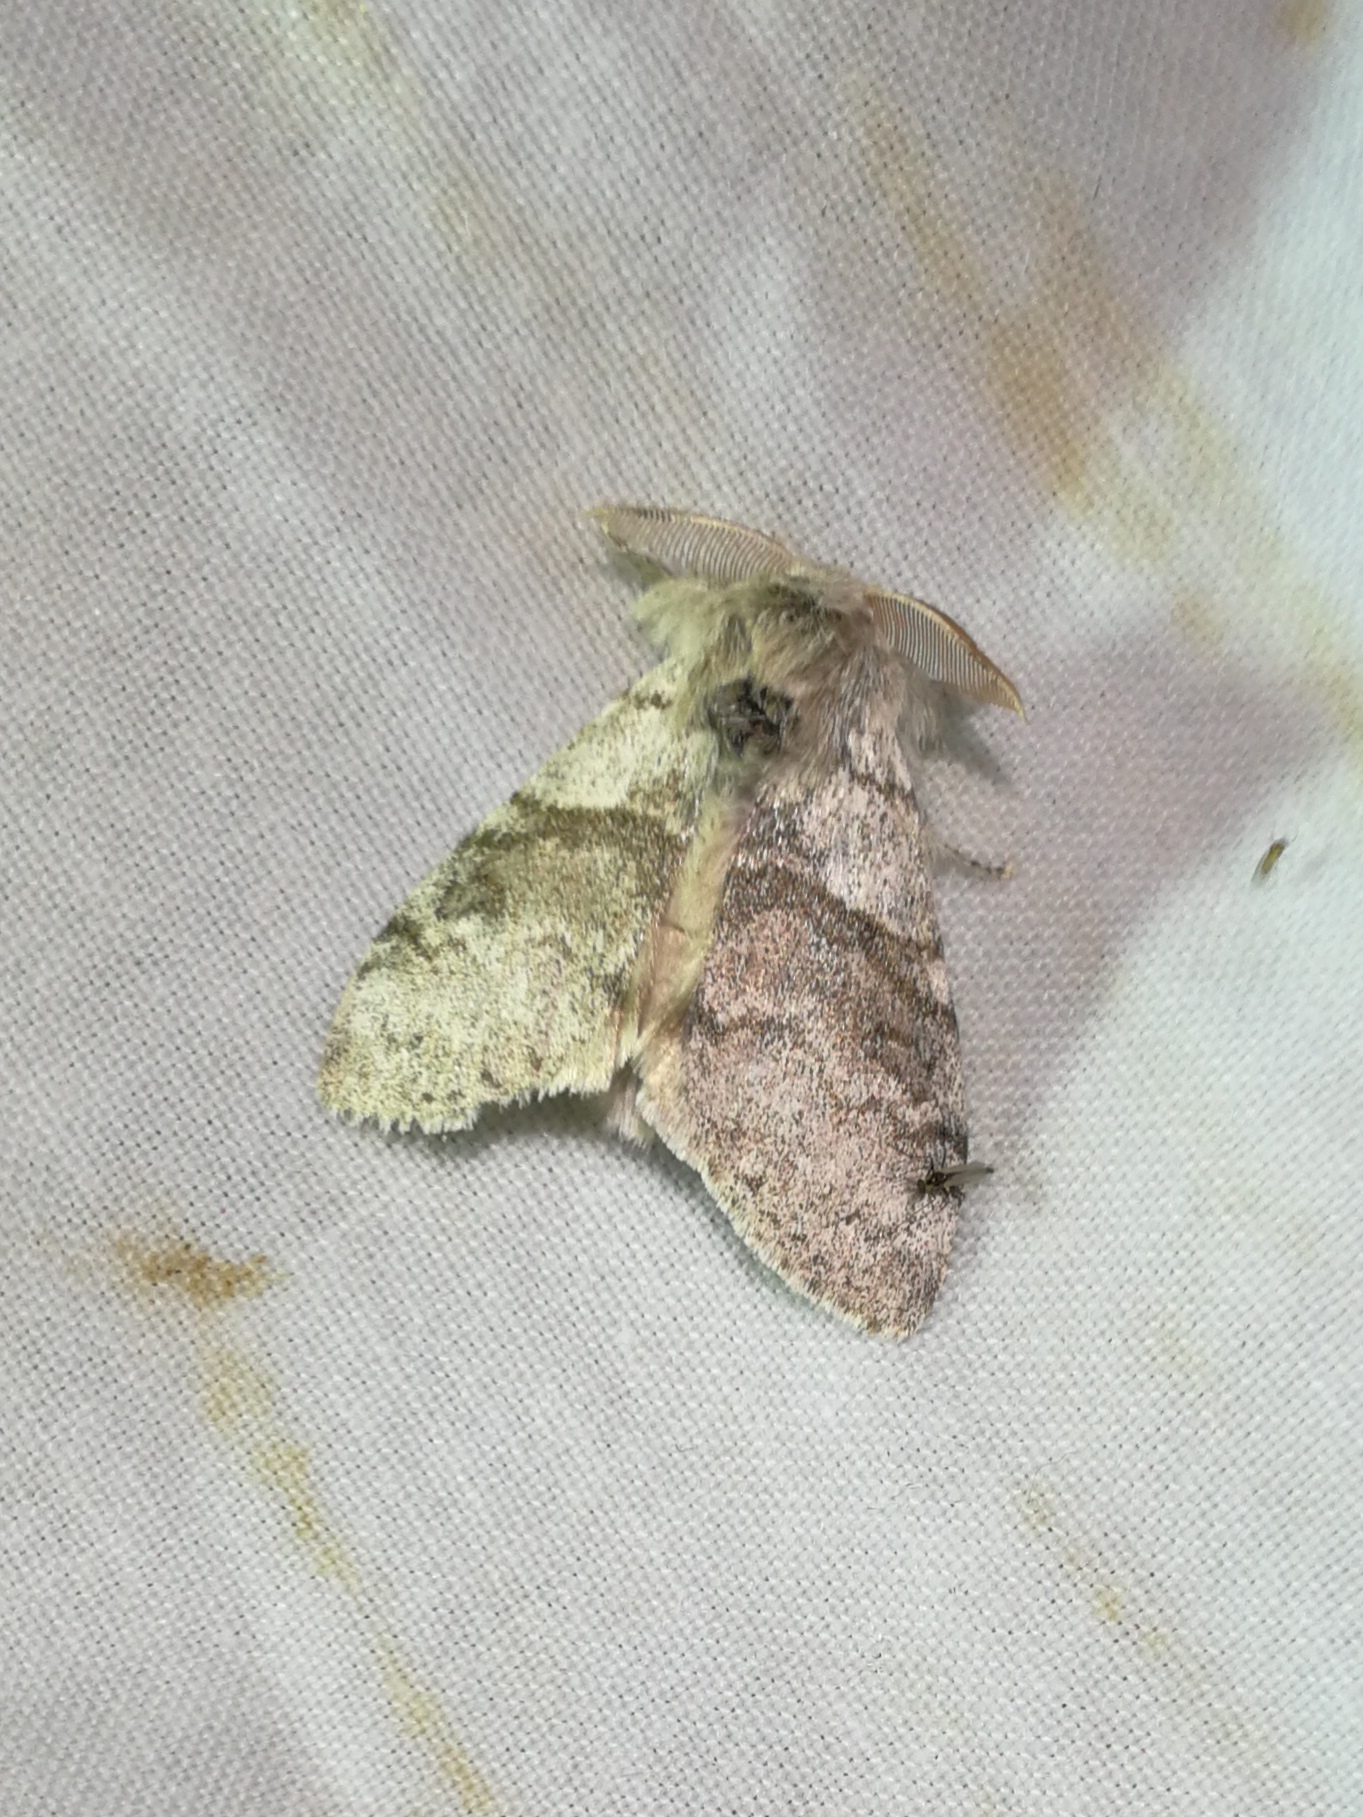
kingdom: Animalia
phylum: Arthropoda
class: Insecta
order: Lepidoptera
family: Erebidae
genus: Calliteara
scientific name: Calliteara pudibunda
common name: Pale tussock
